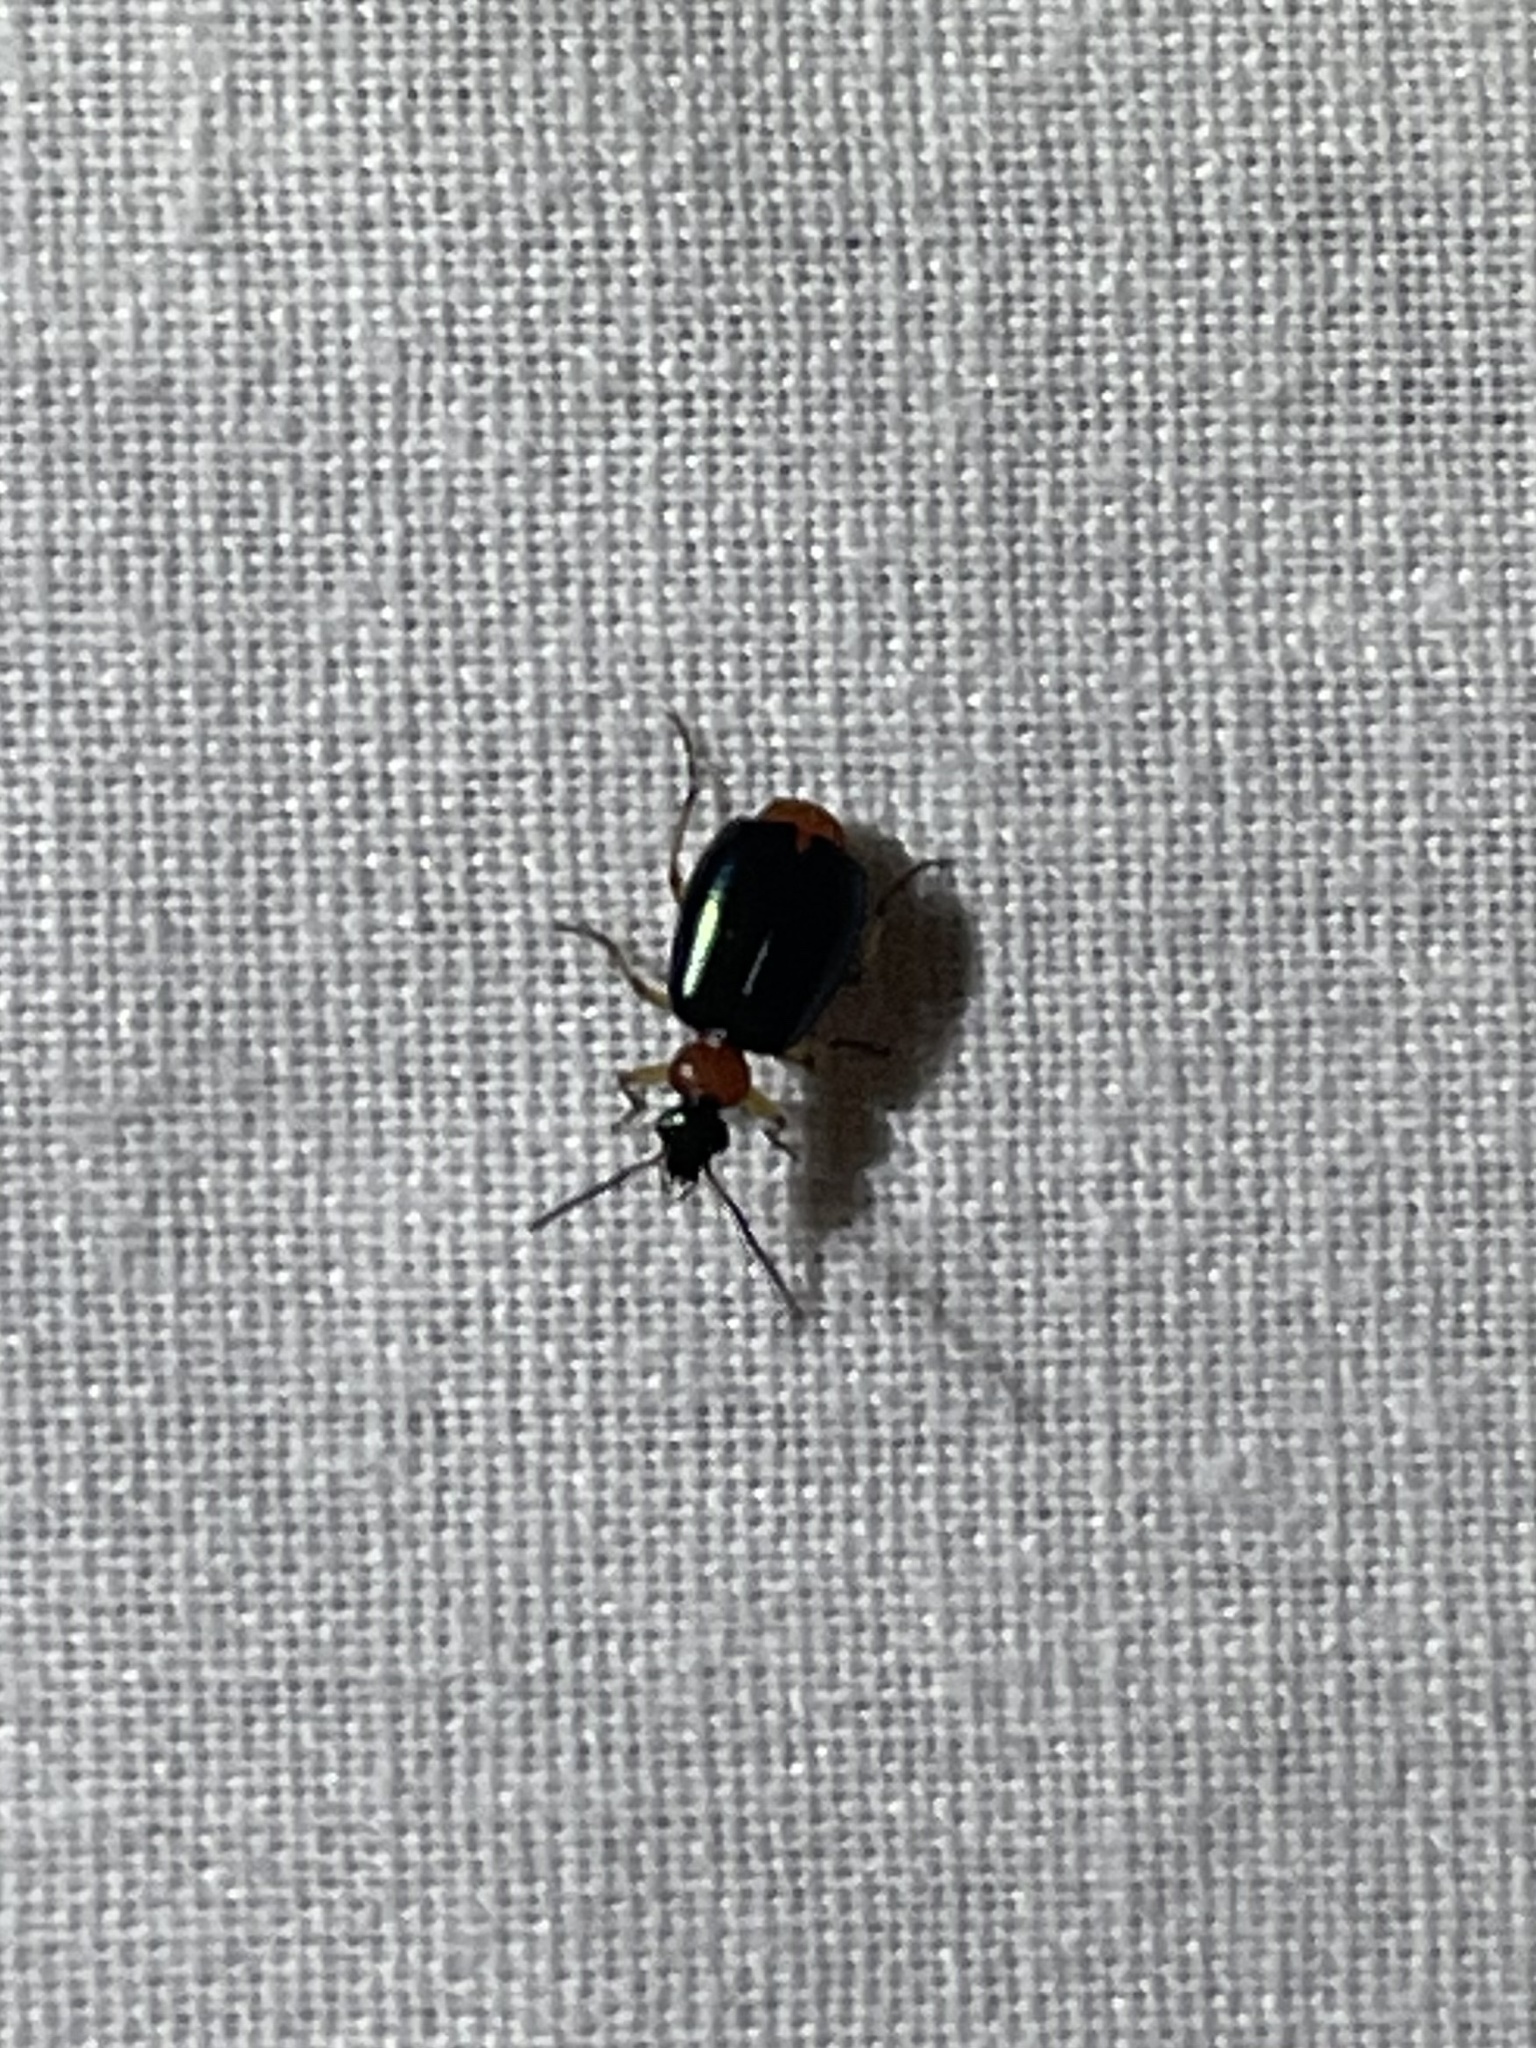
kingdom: Animalia
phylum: Arthropoda
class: Insecta
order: Coleoptera
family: Carabidae
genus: Lebia
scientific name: Lebia viridipennis
